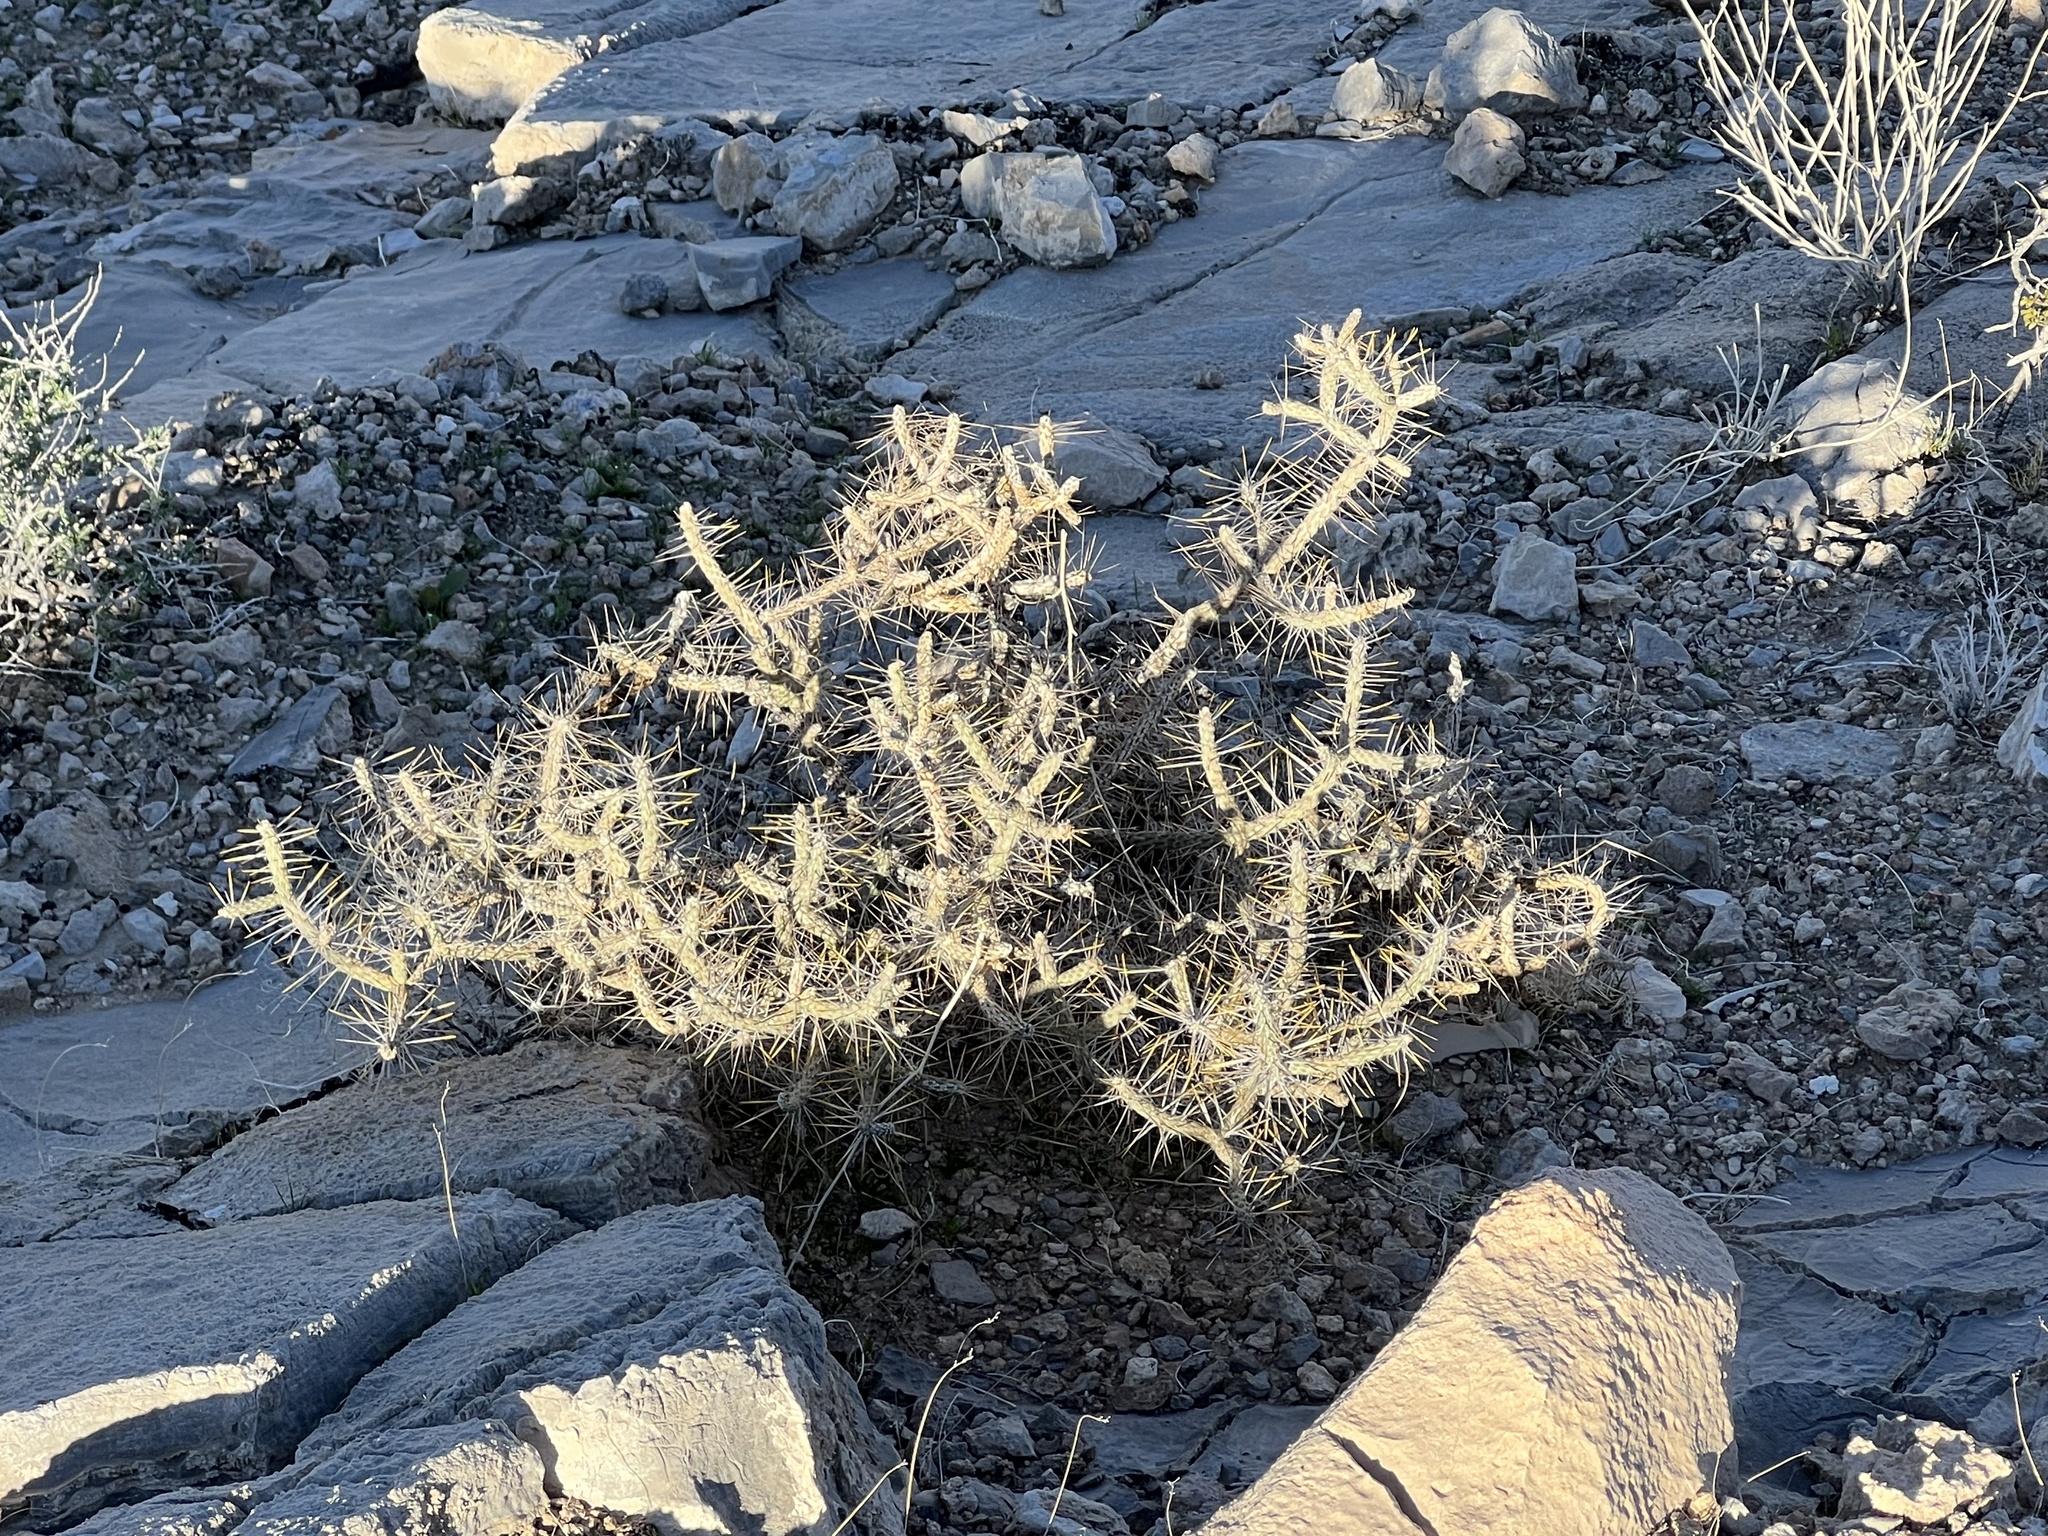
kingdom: Plantae
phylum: Tracheophyta
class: Magnoliopsida
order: Caryophyllales
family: Cactaceae
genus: Cylindropuntia
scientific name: Cylindropuntia ramosissima
